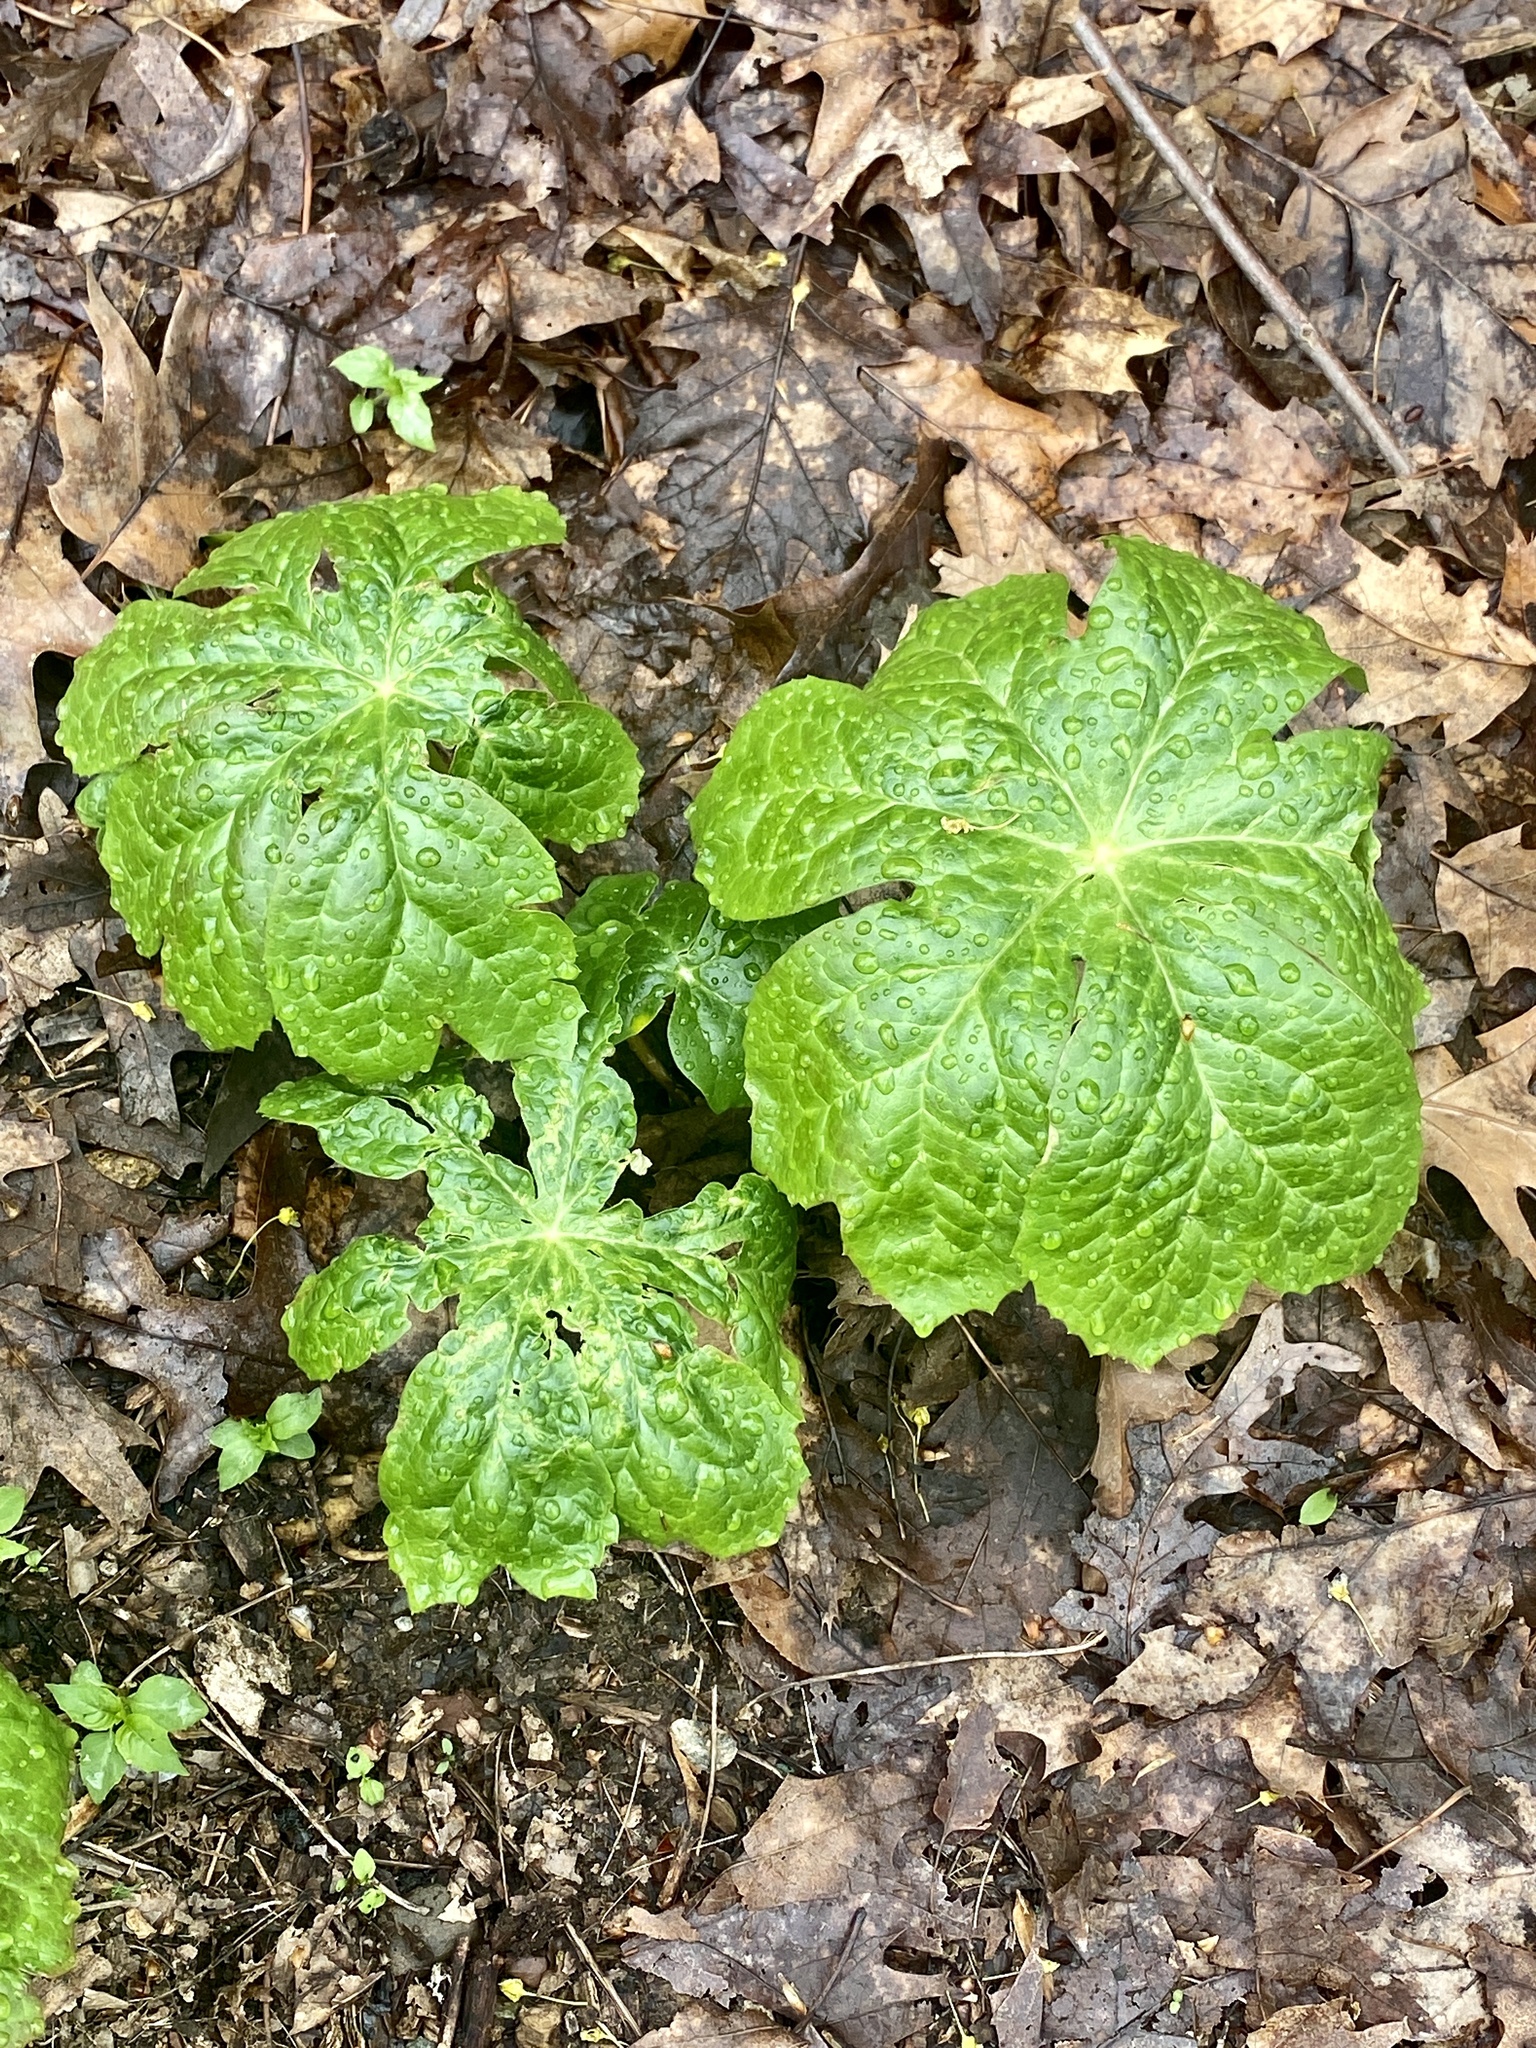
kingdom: Plantae
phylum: Tracheophyta
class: Magnoliopsida
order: Ranunculales
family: Berberidaceae
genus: Podophyllum
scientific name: Podophyllum peltatum
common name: Wild mandrake
